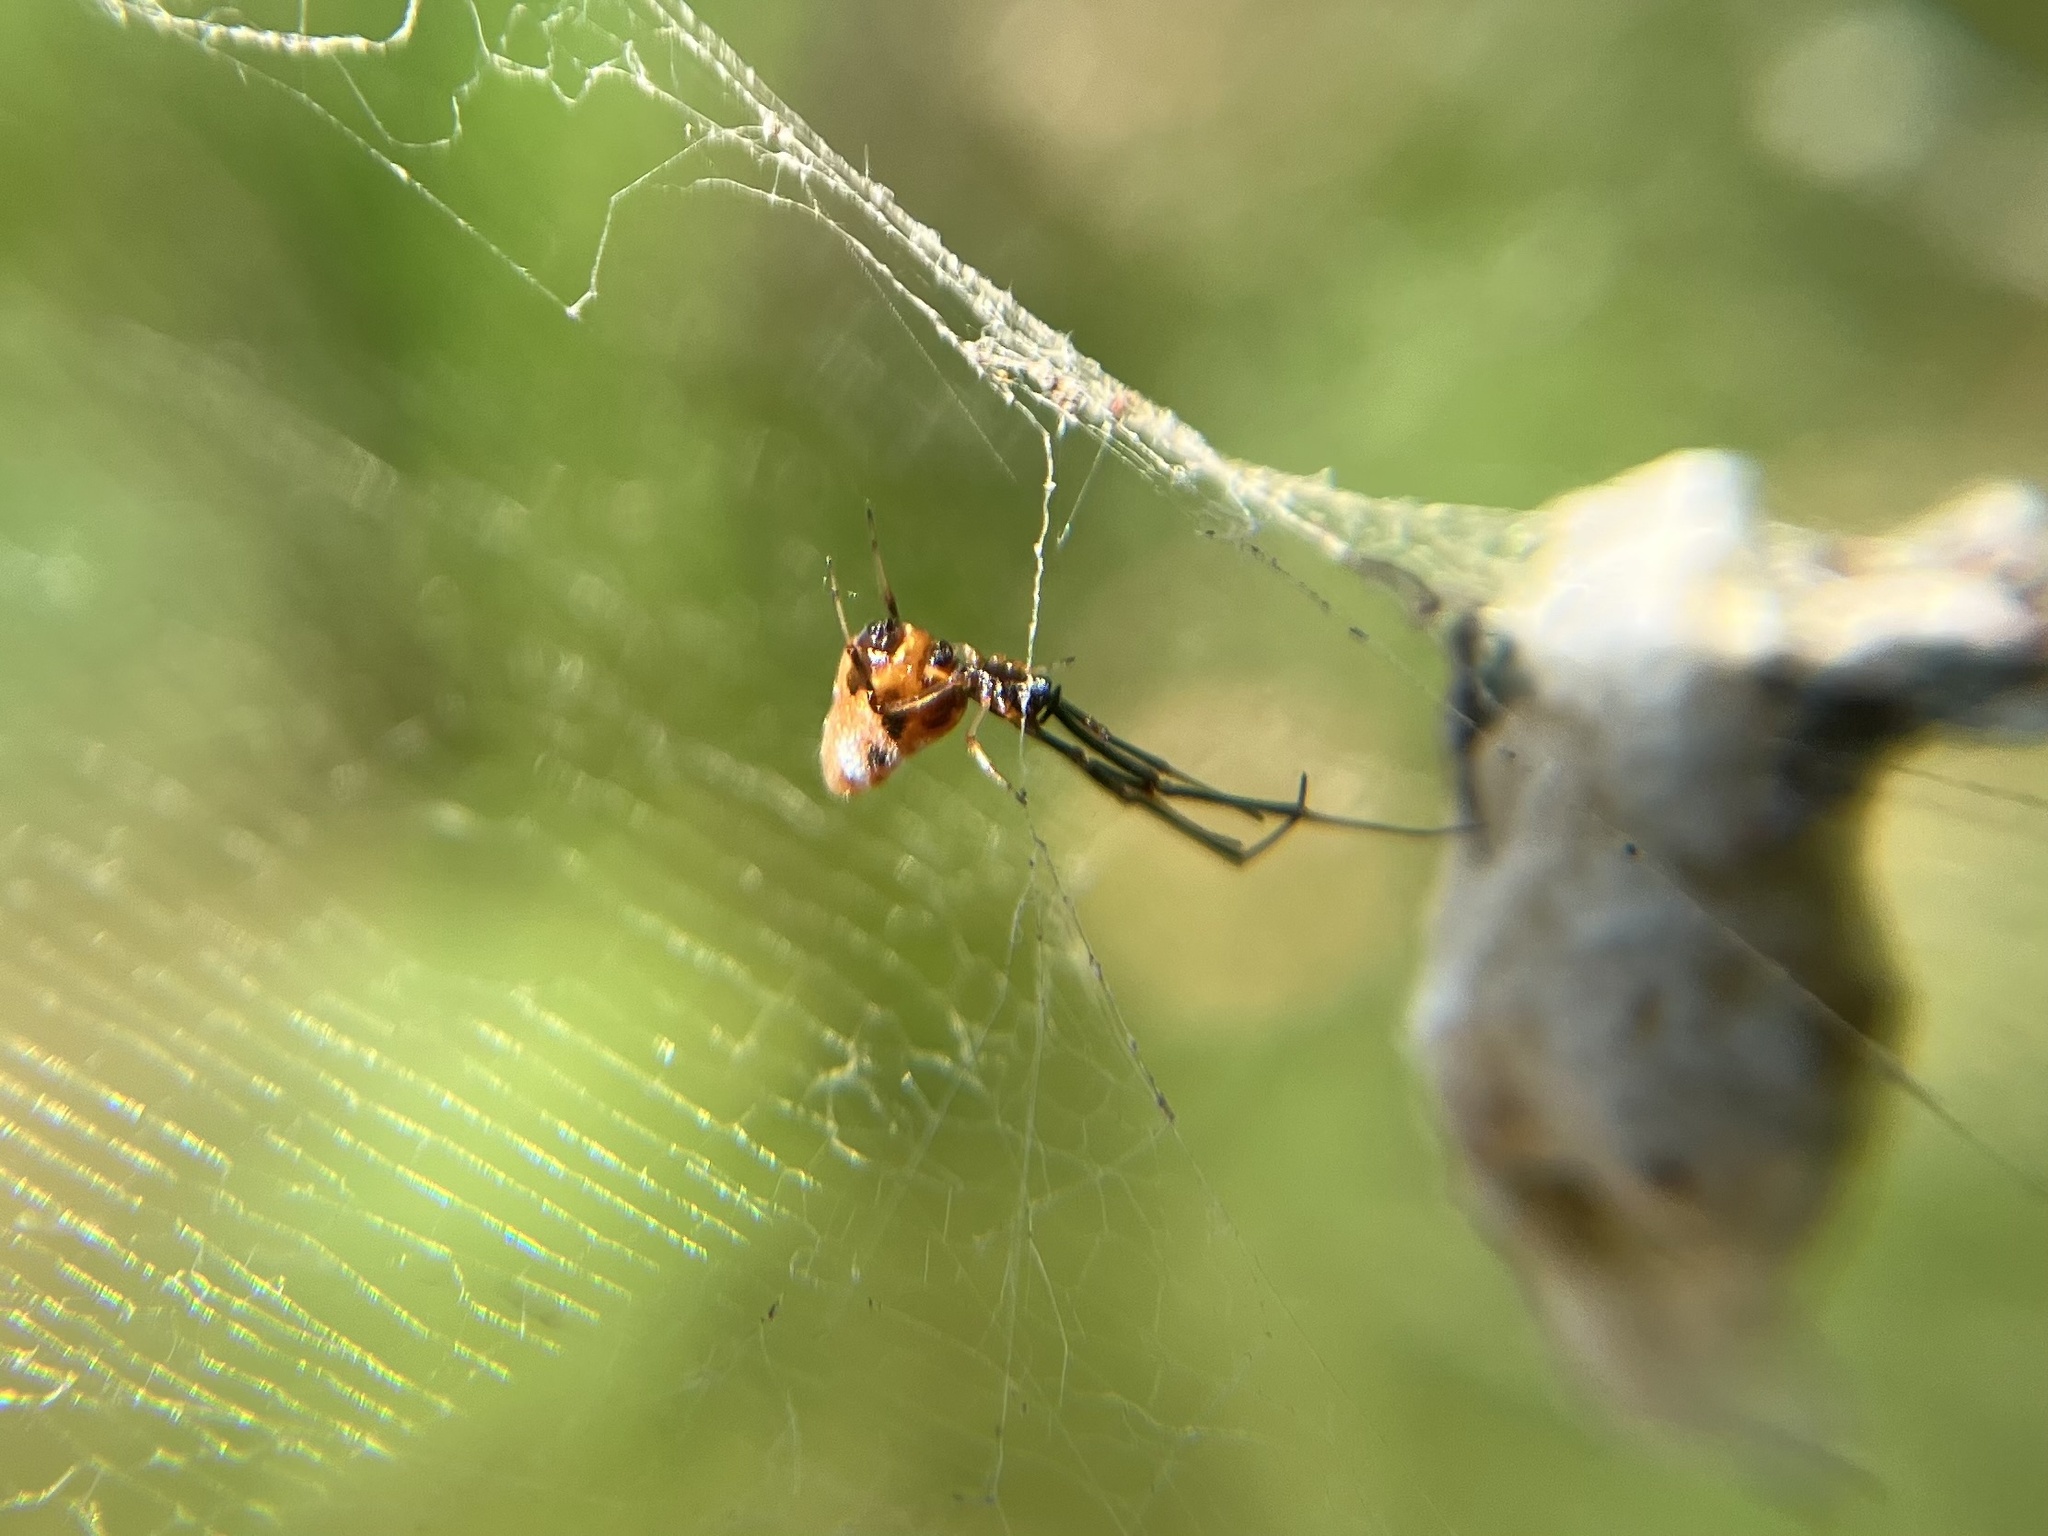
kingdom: Animalia
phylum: Arthropoda
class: Arachnida
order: Araneae
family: Theridiidae
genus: Argyrodes
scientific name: Argyrodes argyrodes
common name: Dewdrop spider
